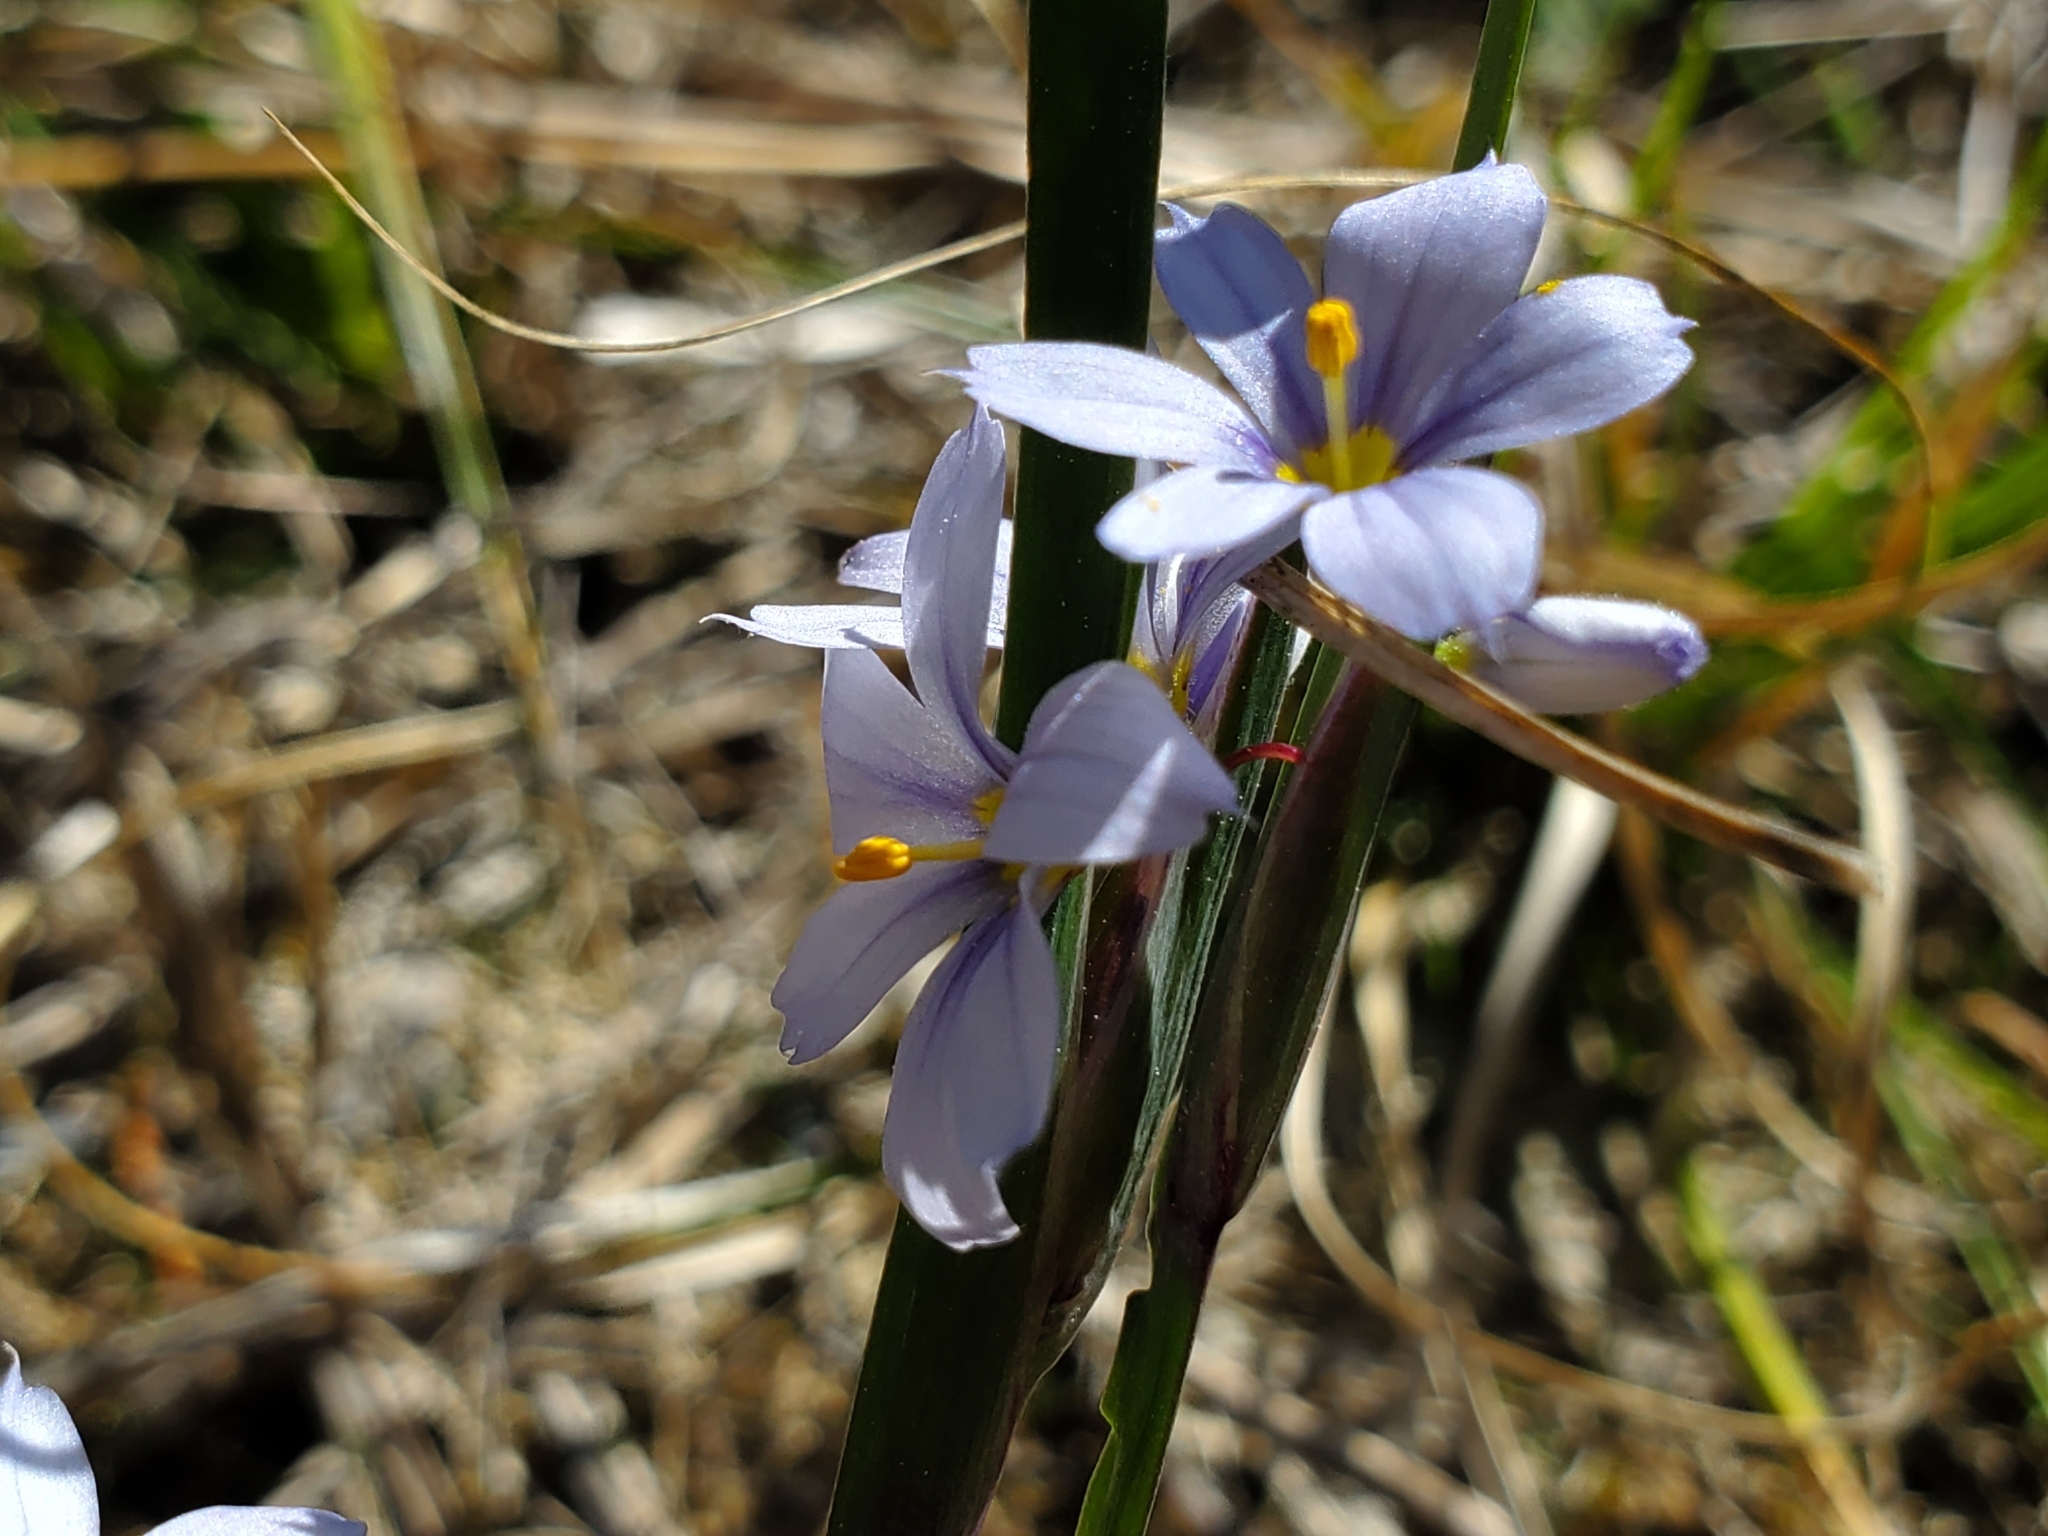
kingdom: Plantae
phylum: Tracheophyta
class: Liliopsida
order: Asparagales
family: Iridaceae
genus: Sisyrinchium
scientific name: Sisyrinchium albidum
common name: Pale blue-eyed-grass
